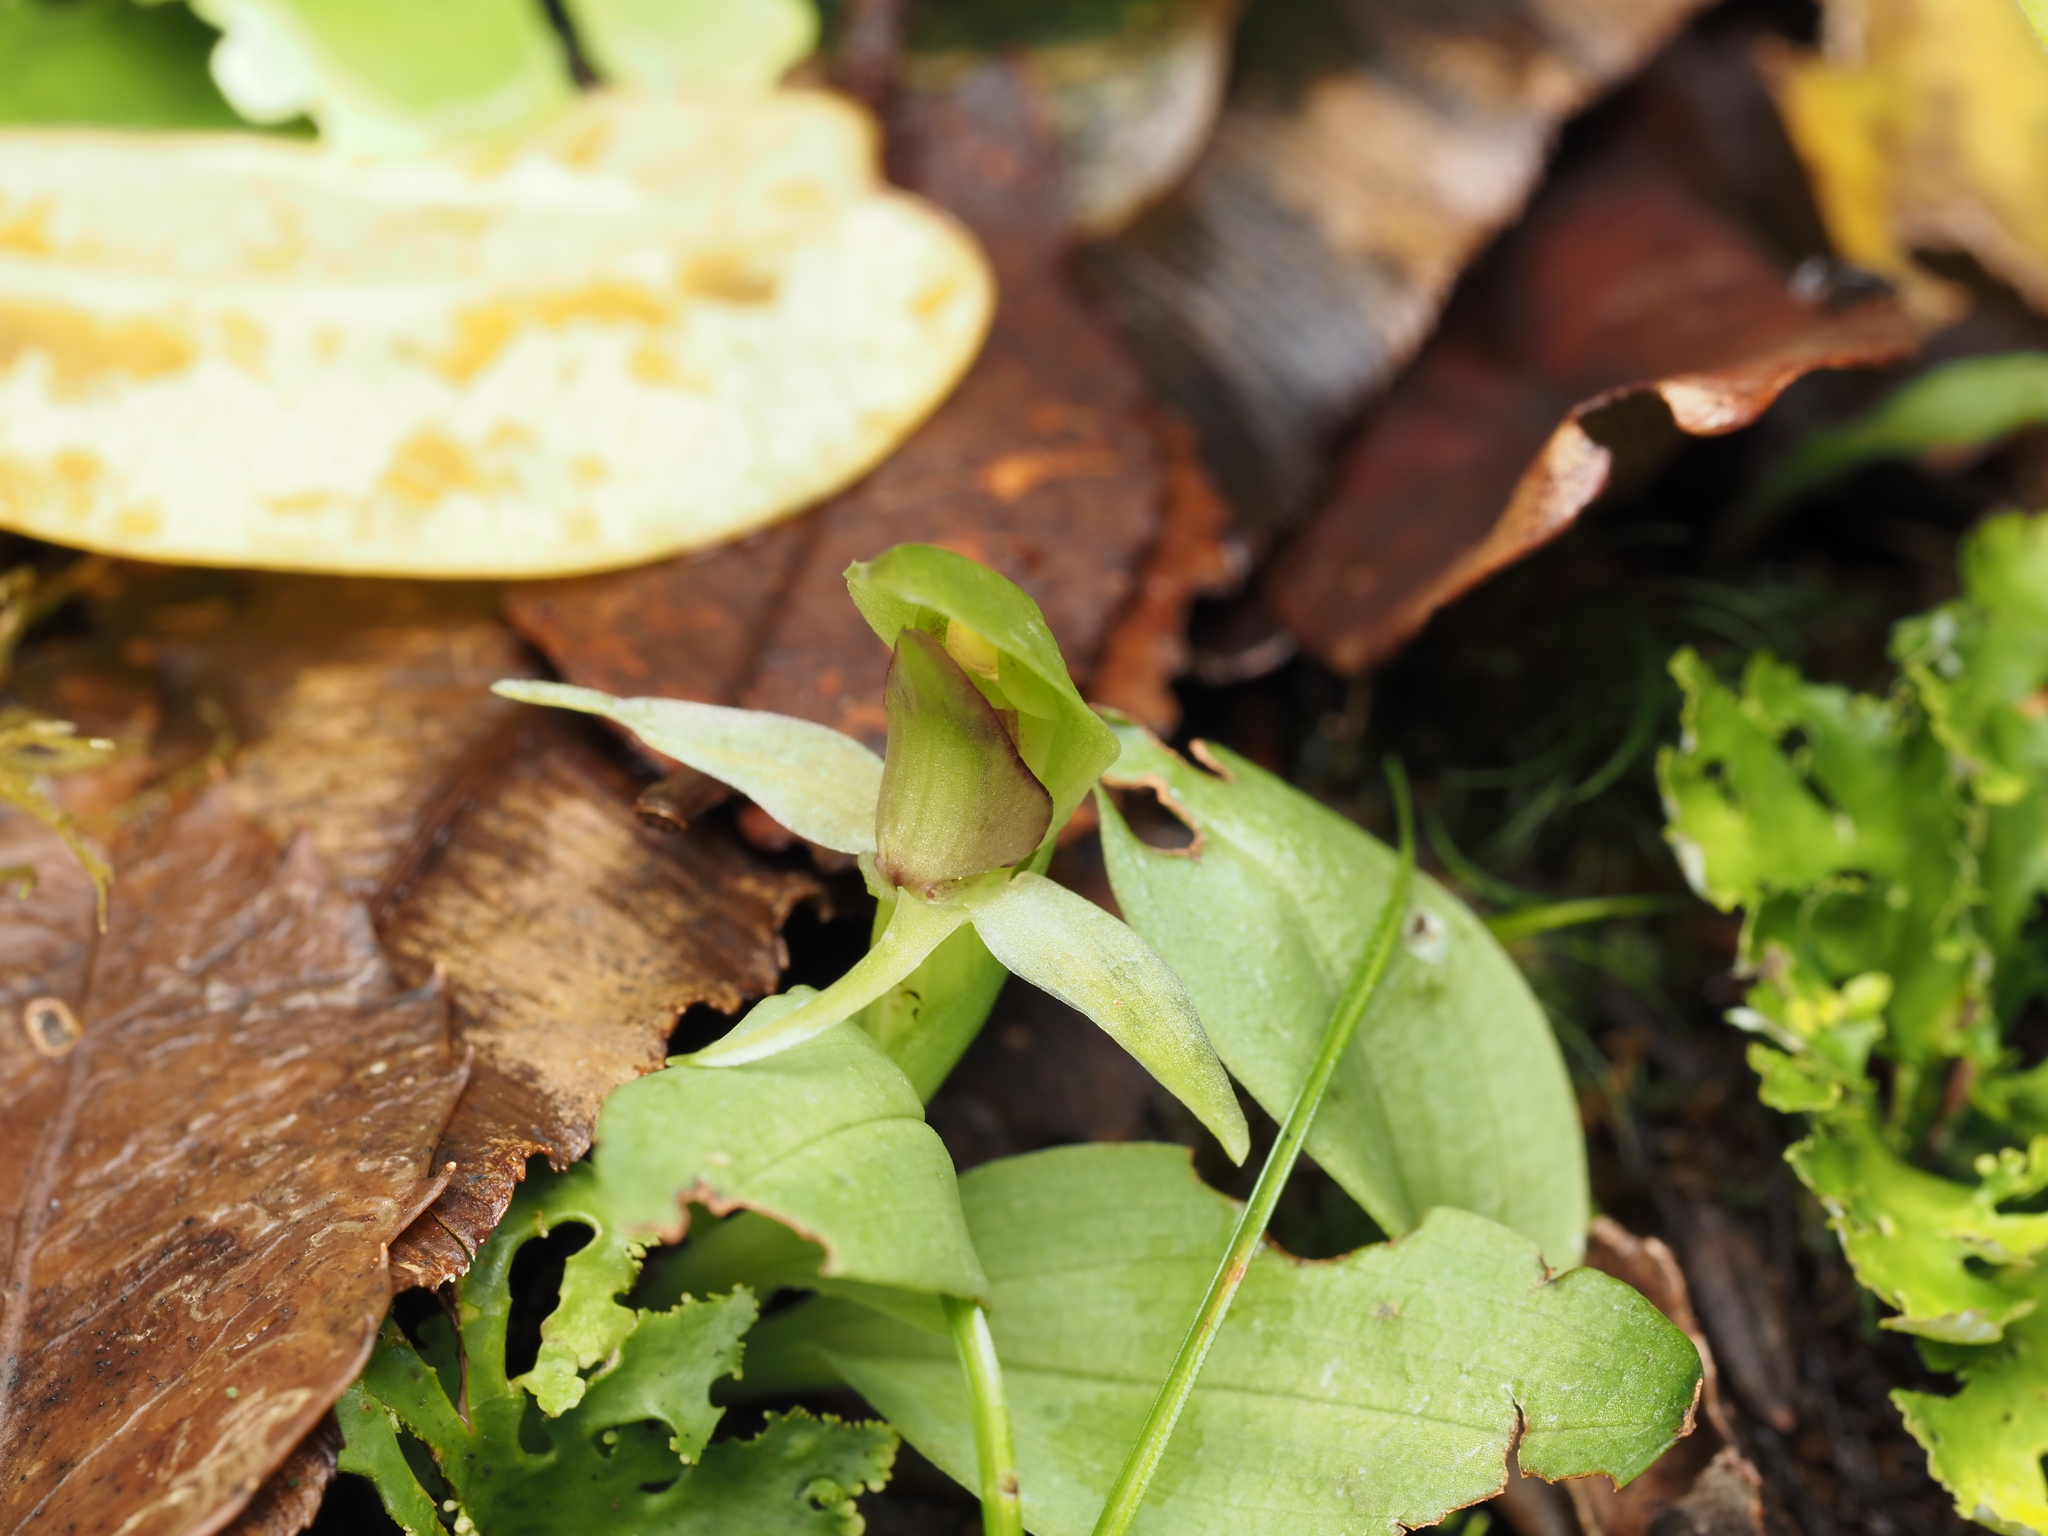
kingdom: Plantae
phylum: Tracheophyta
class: Liliopsida
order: Asparagales
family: Orchidaceae
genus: Chiloglottis
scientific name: Chiloglottis cornuta
